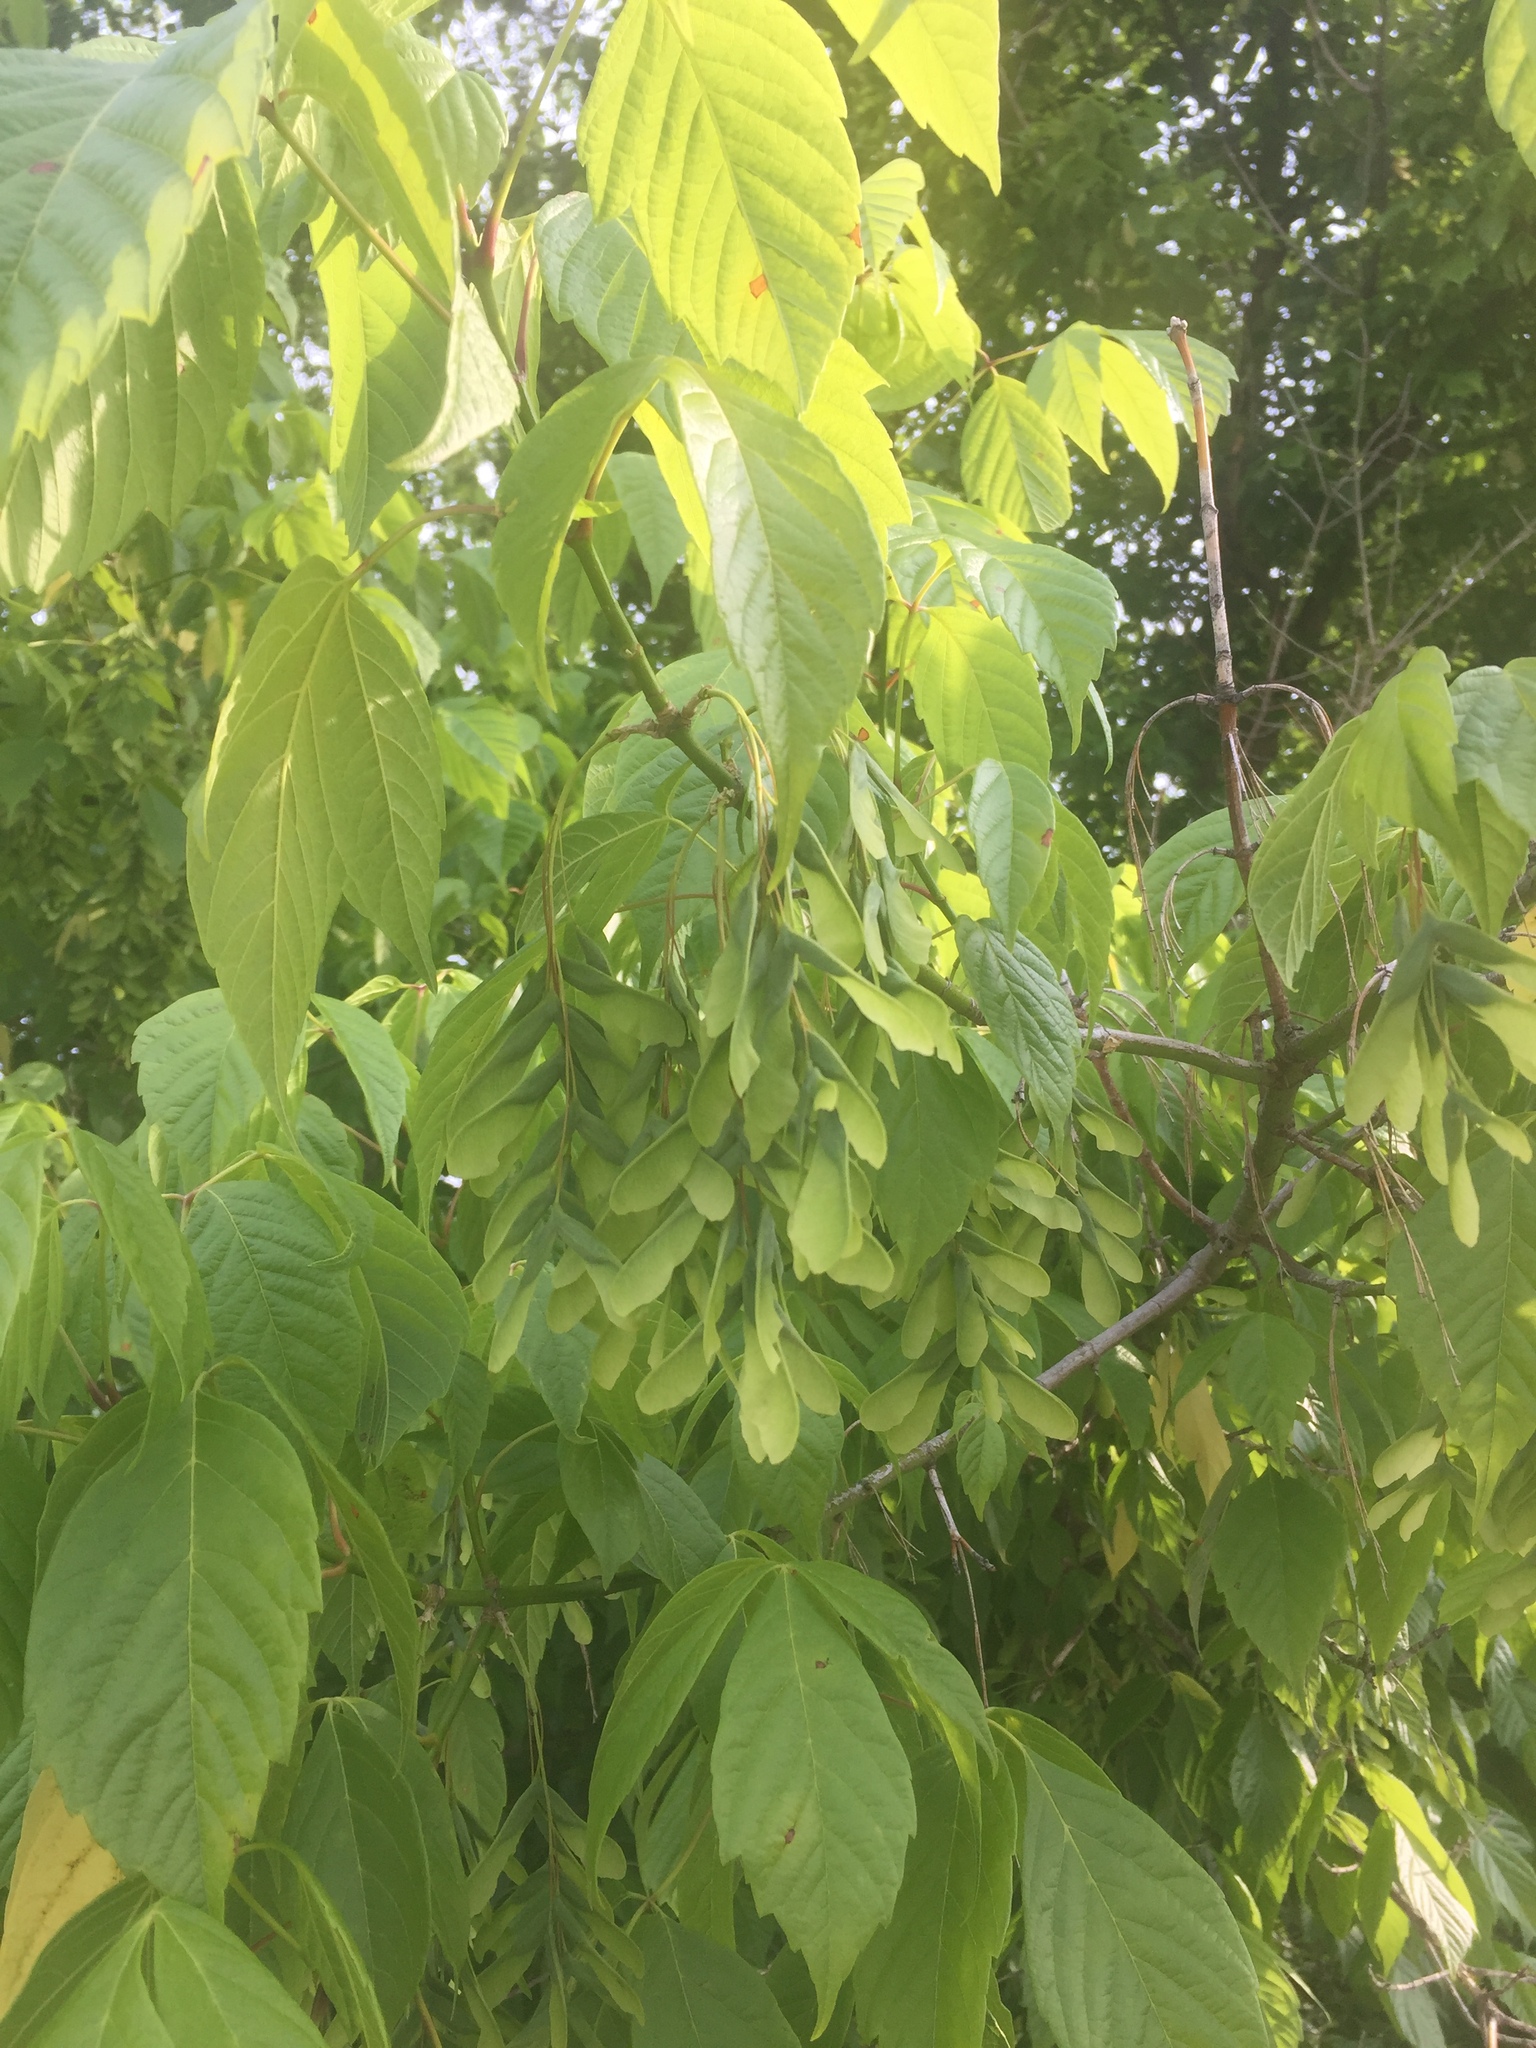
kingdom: Plantae
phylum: Tracheophyta
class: Magnoliopsida
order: Sapindales
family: Sapindaceae
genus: Acer
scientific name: Acer negundo
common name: Ashleaf maple
